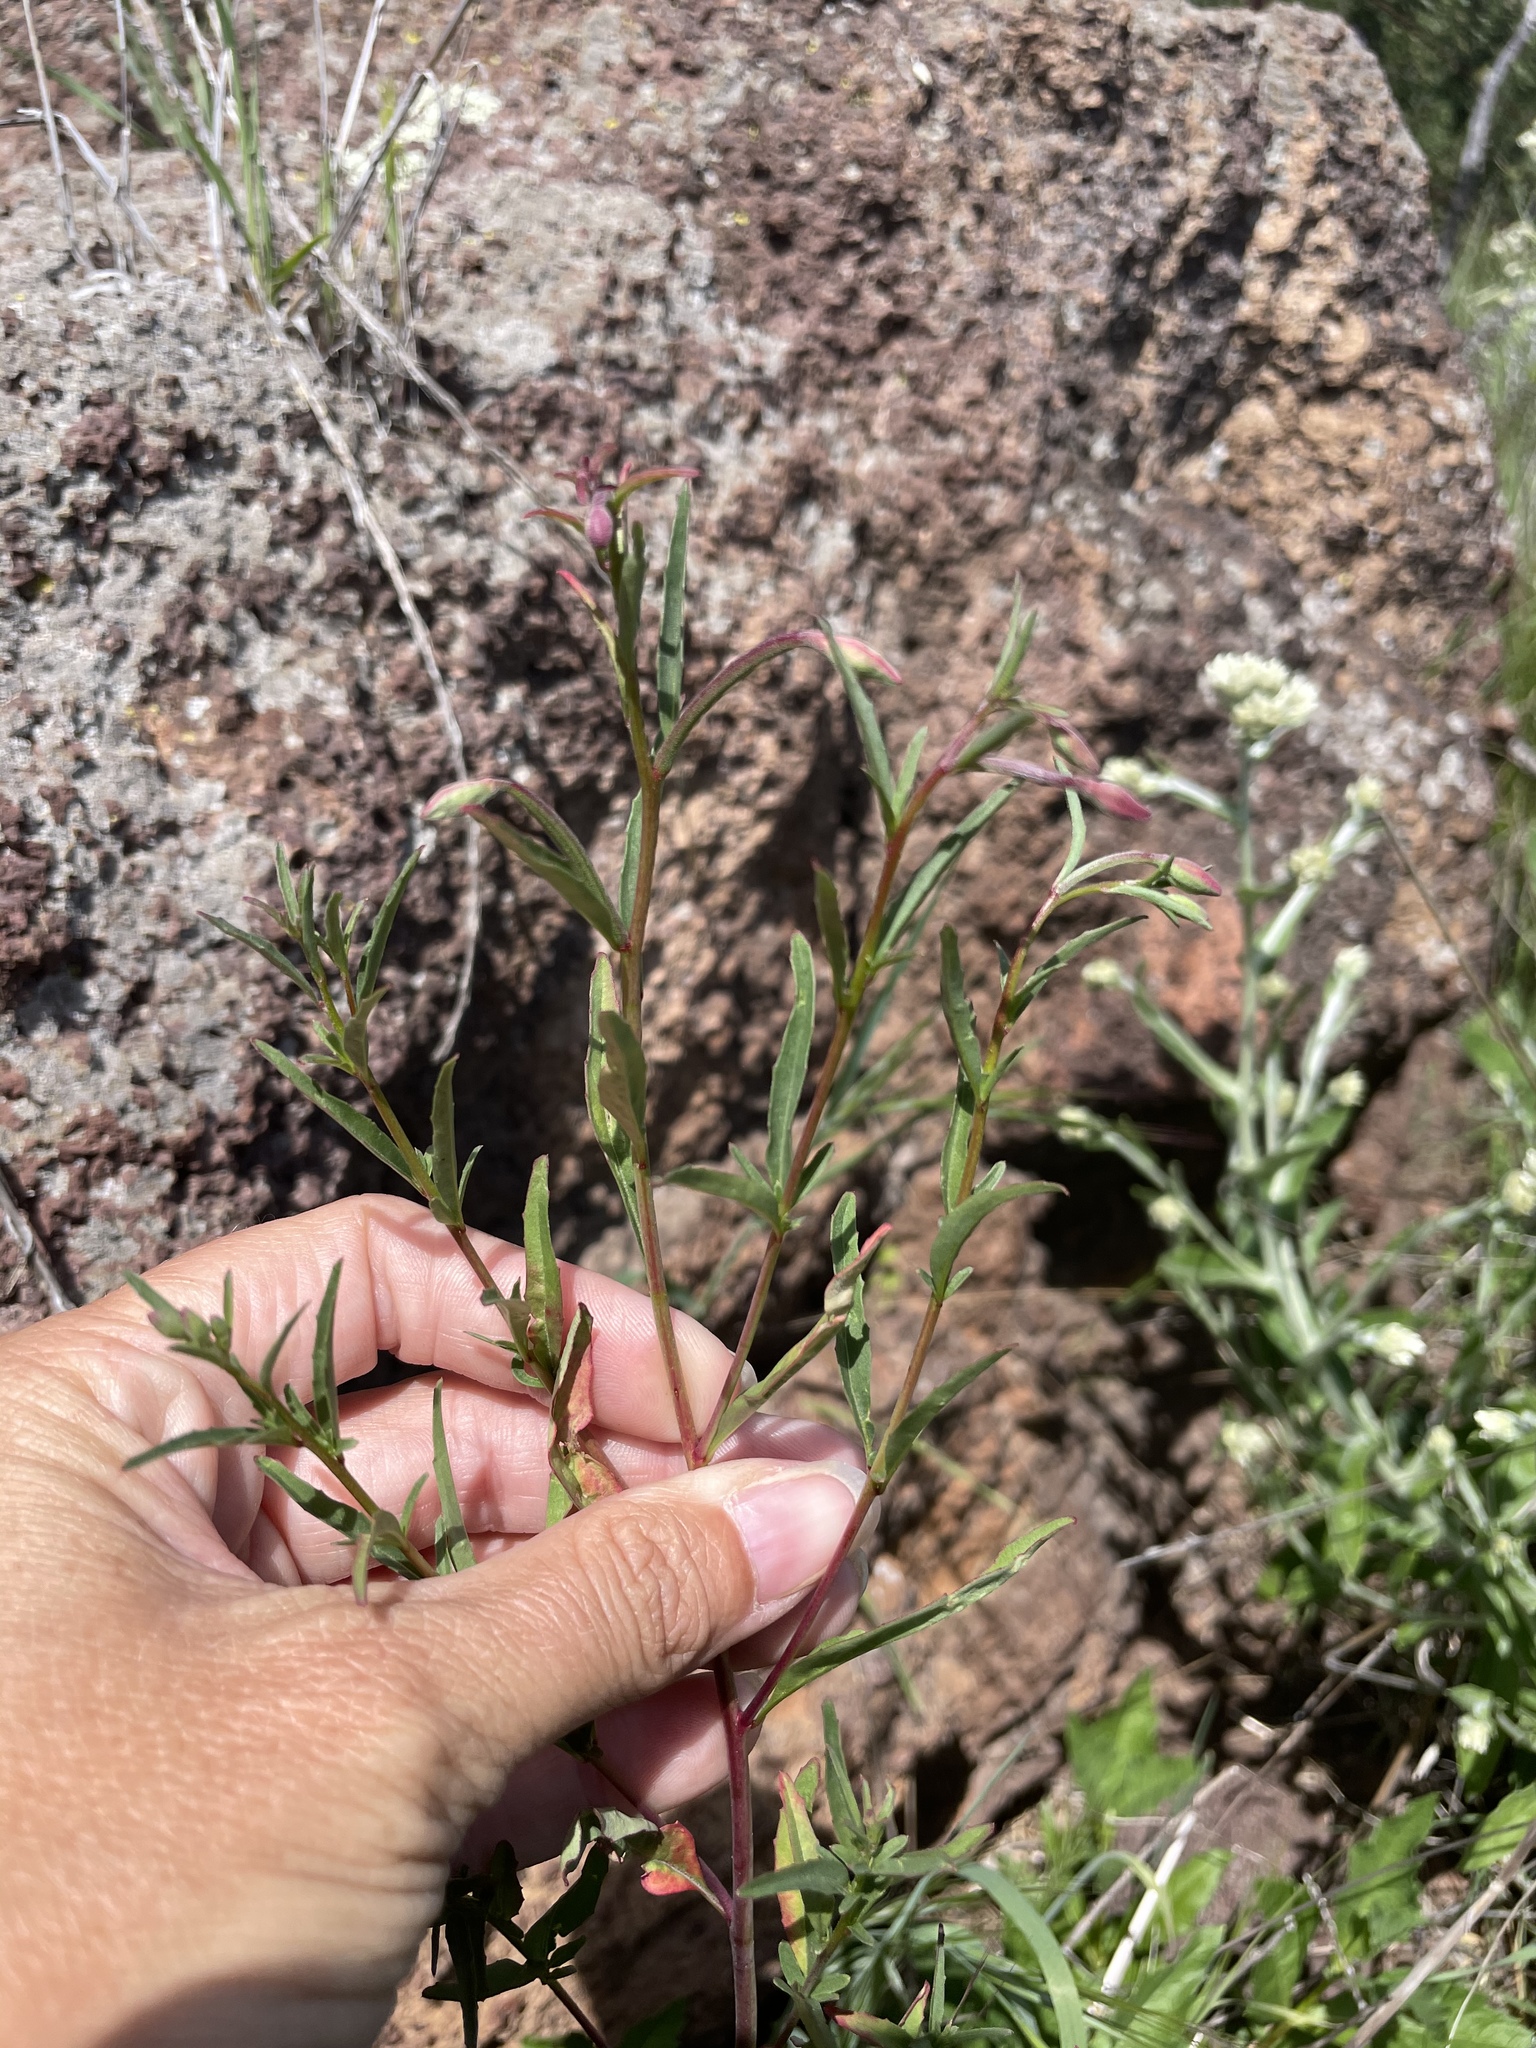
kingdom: Plantae
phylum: Tracheophyta
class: Magnoliopsida
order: Myrtales
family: Onagraceae
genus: Clarkia
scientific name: Clarkia delicata
